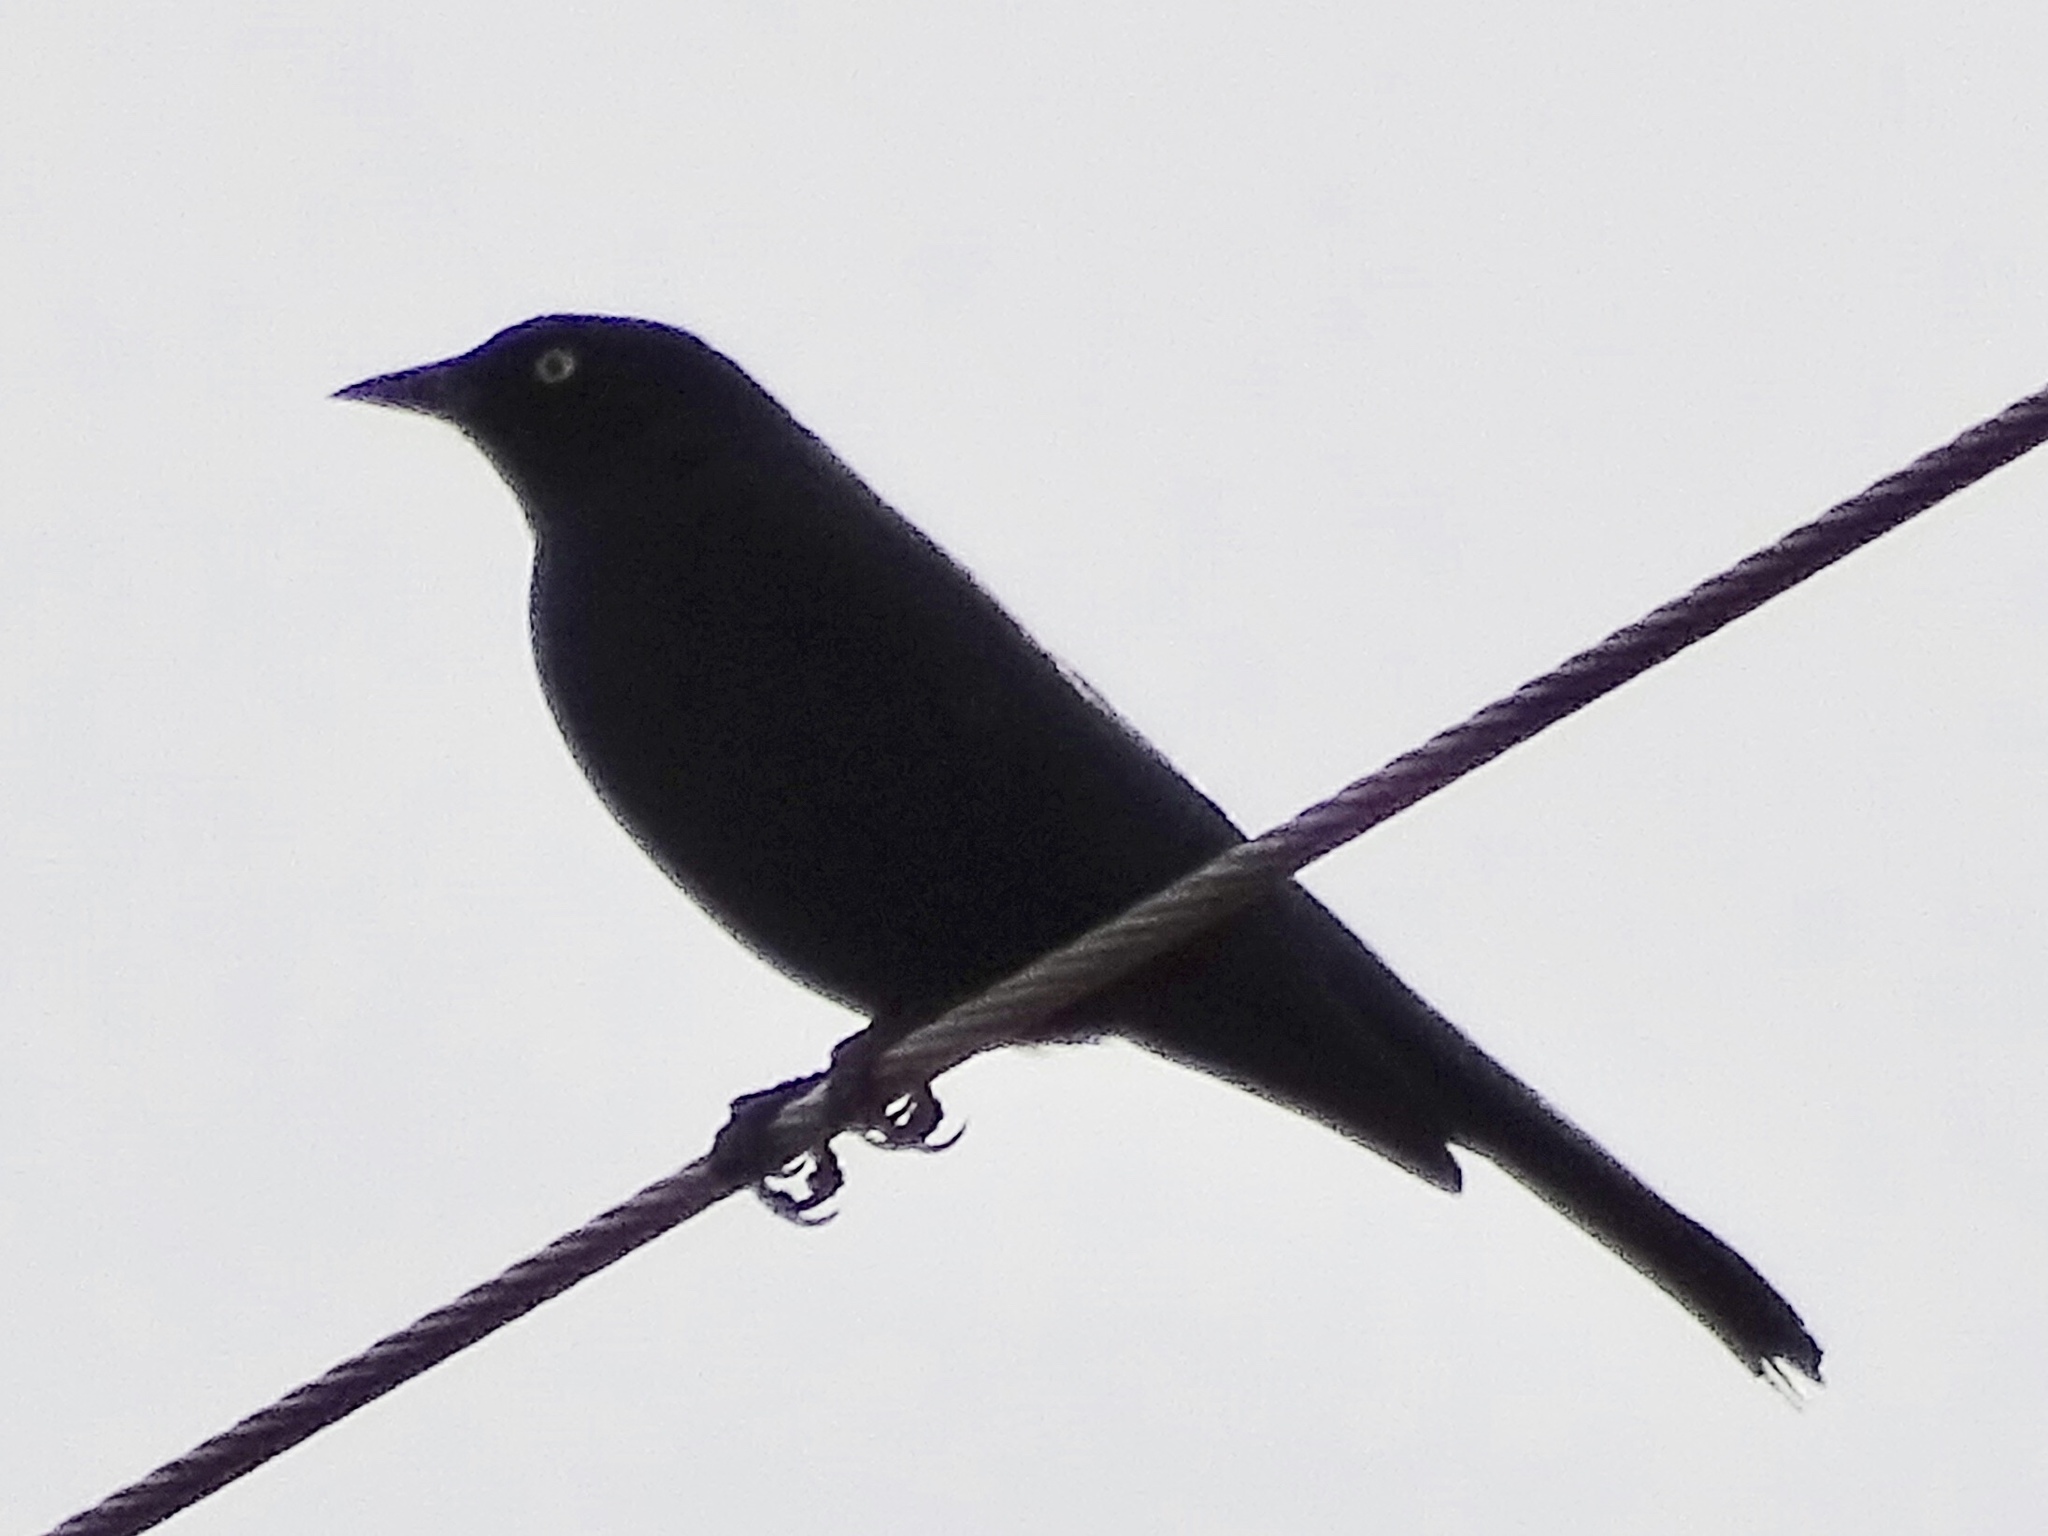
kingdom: Animalia
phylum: Chordata
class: Aves
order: Passeriformes
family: Icteridae
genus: Euphagus
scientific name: Euphagus cyanocephalus
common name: Brewer's blackbird
